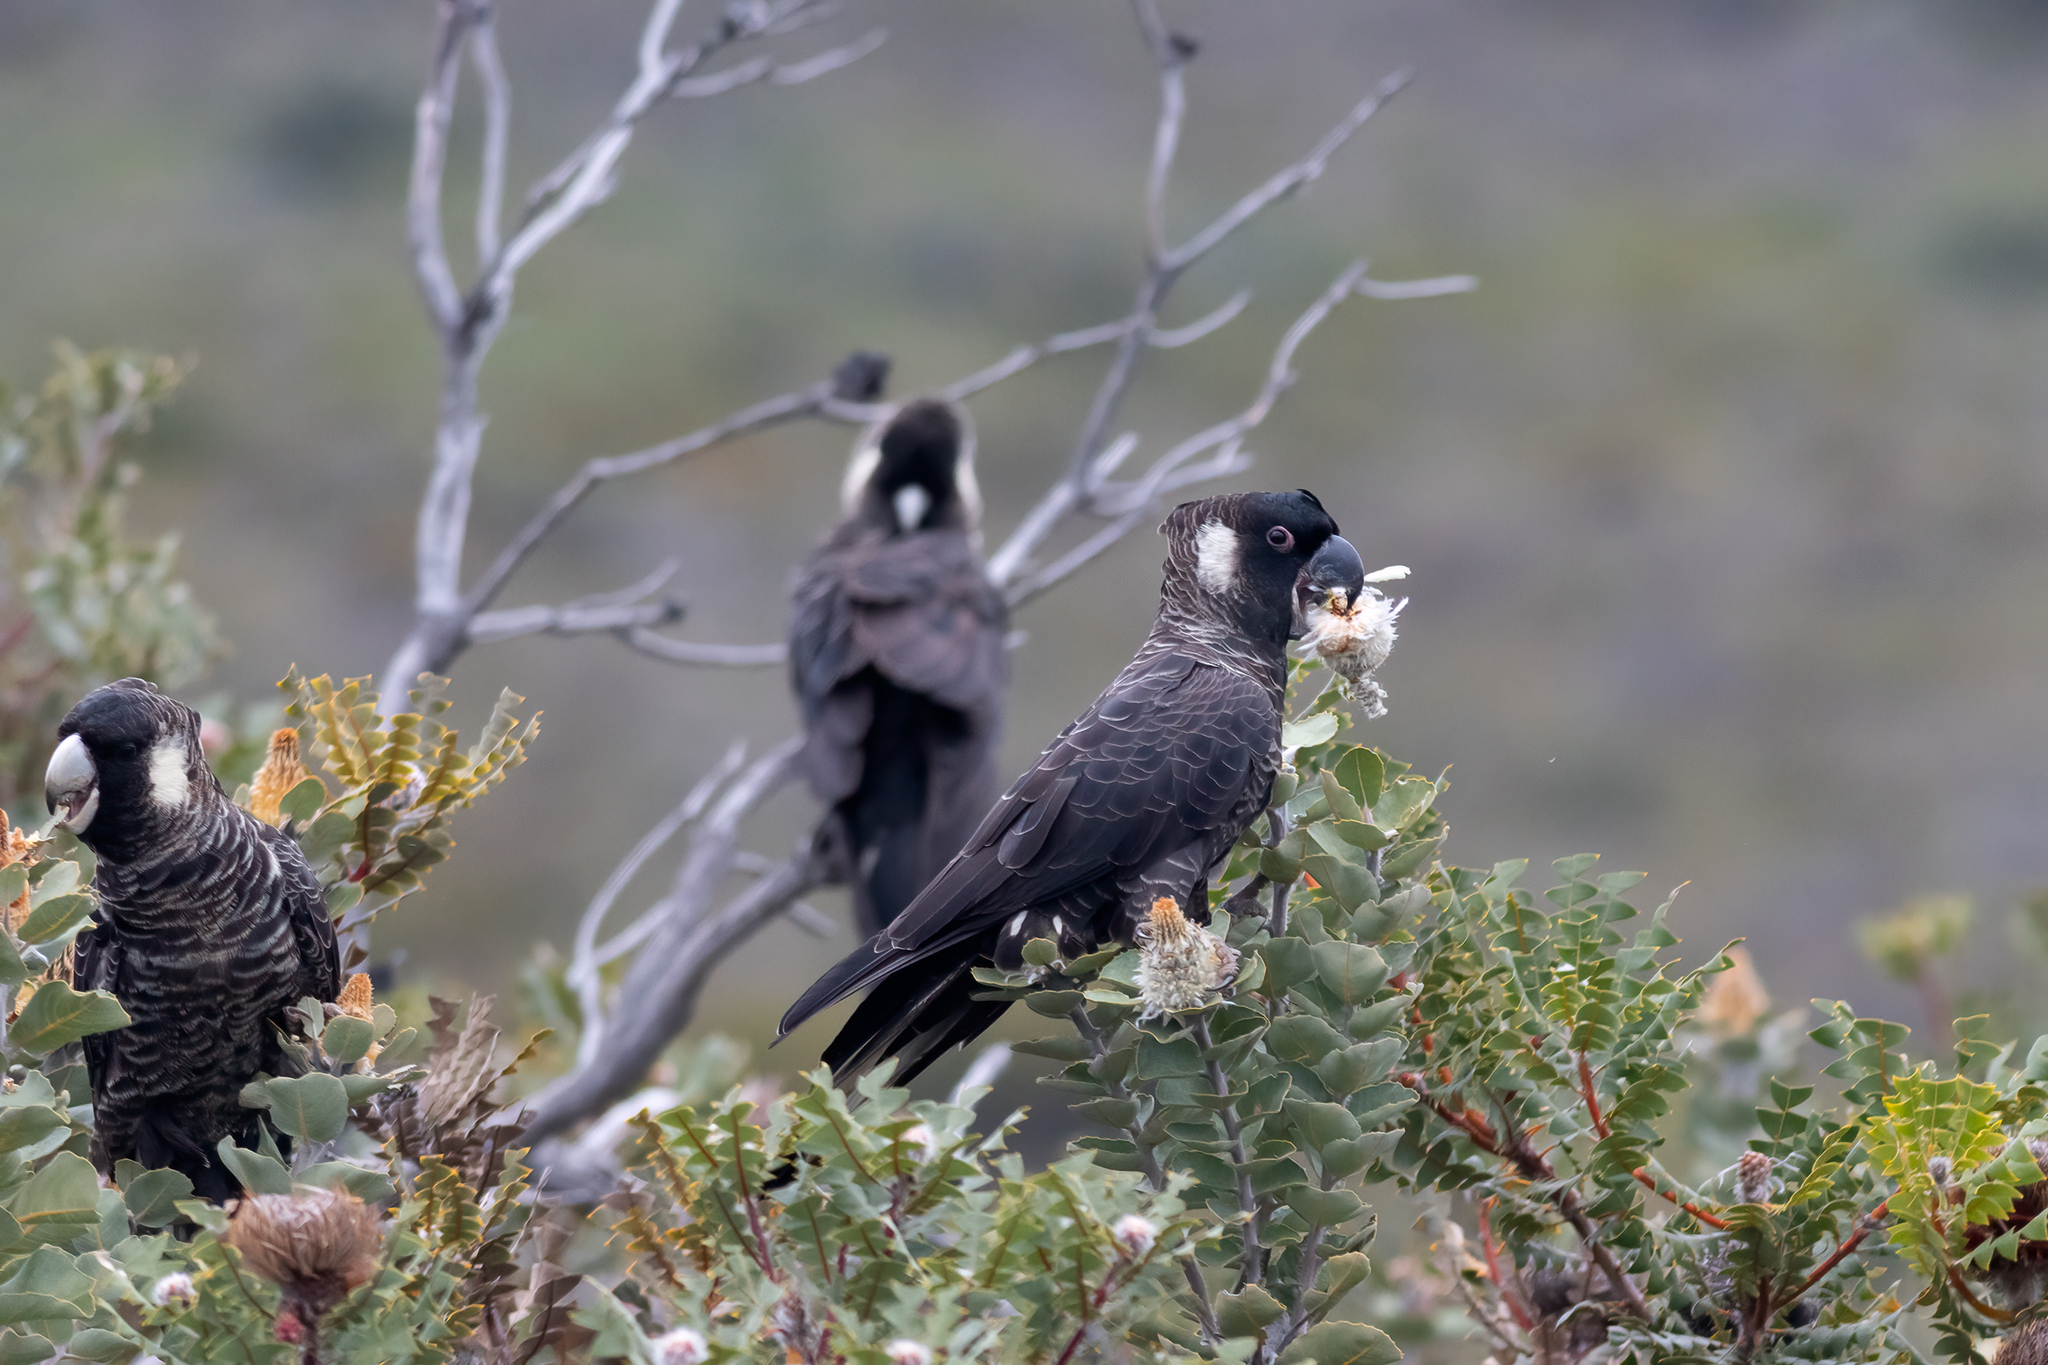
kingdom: Animalia
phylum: Chordata
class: Aves
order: Psittaciformes
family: Cacatuidae
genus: Zanda
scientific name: Zanda latirostris
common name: Short-billed black-cockatoo
